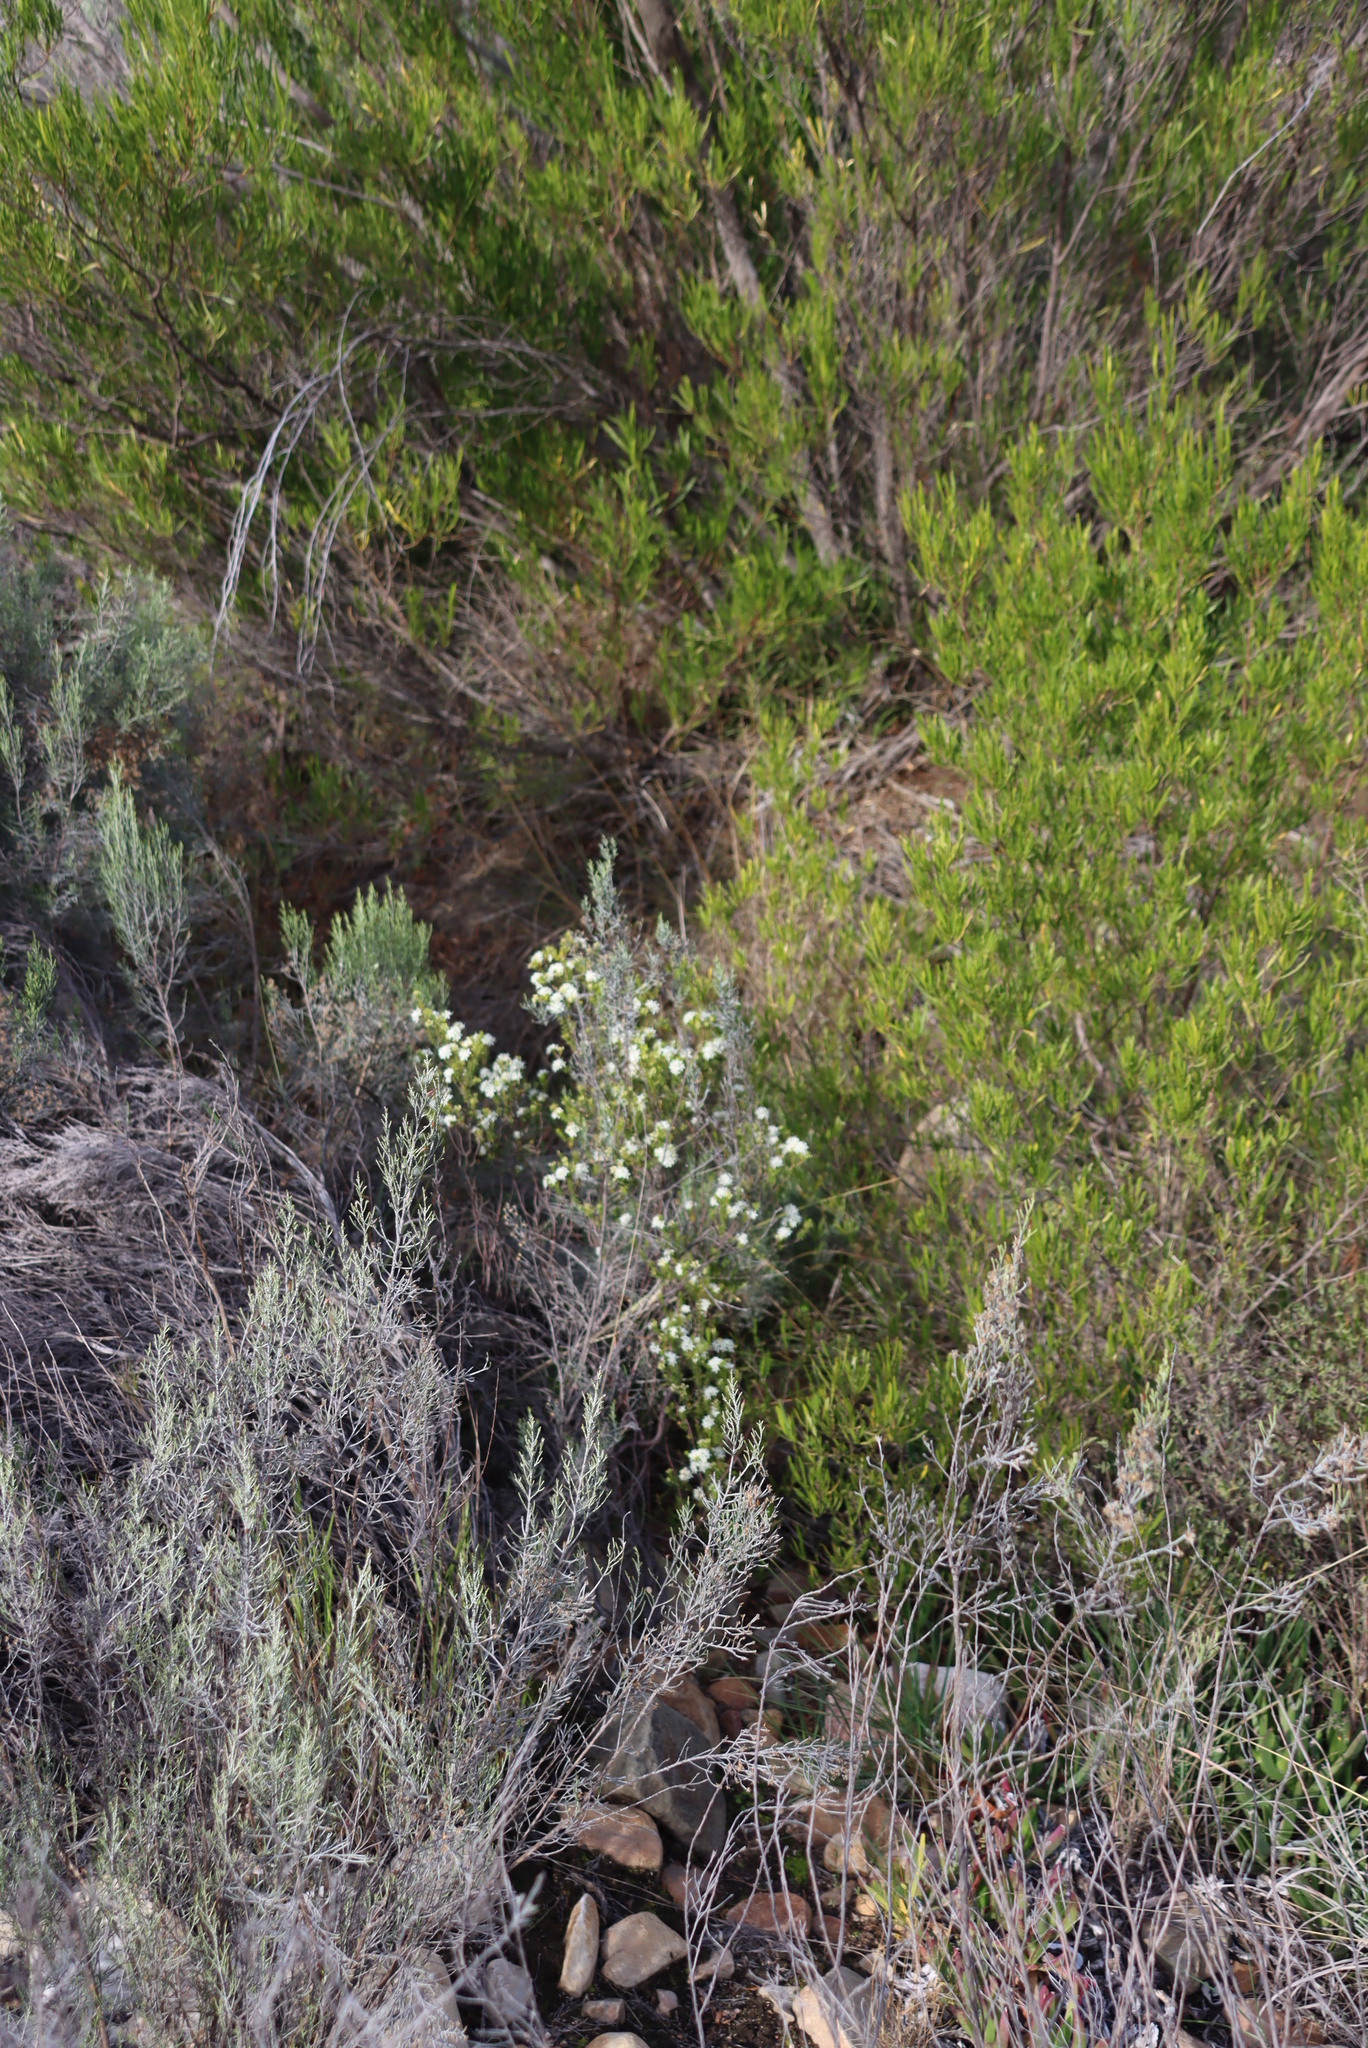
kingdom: Plantae
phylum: Tracheophyta
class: Magnoliopsida
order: Sapindales
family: Rutaceae
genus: Agathosma
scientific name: Agathosma recurvifolia
